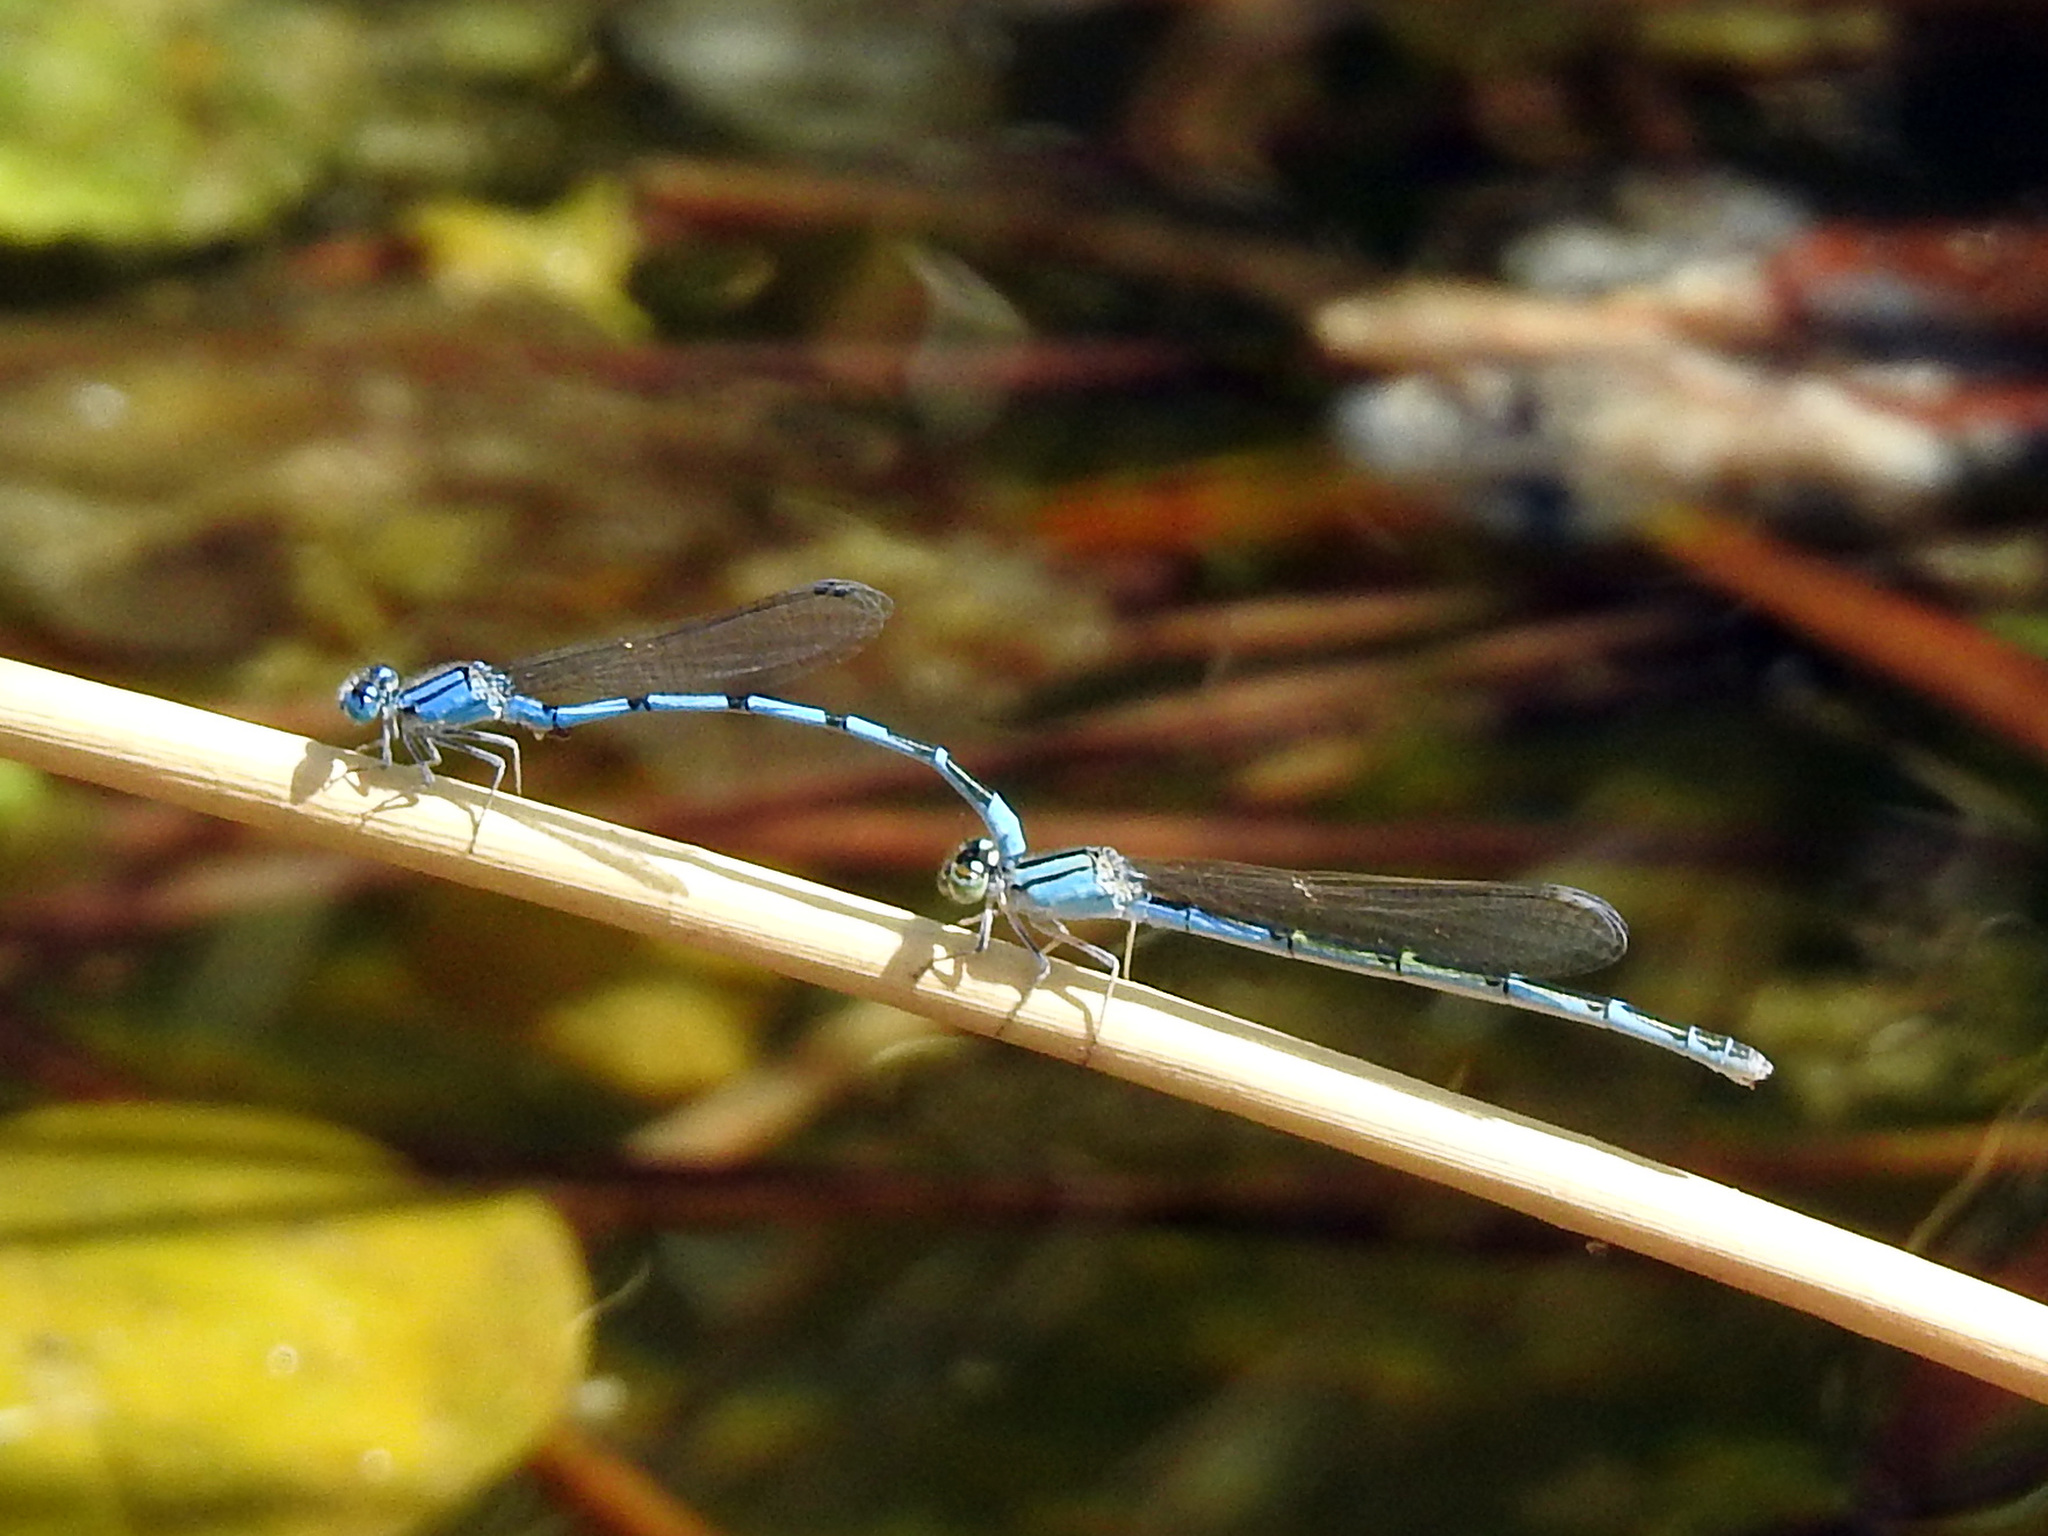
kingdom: Animalia
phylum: Arthropoda
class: Insecta
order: Odonata
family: Coenagrionidae
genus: Enallagma
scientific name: Enallagma civile
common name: Damselfly
